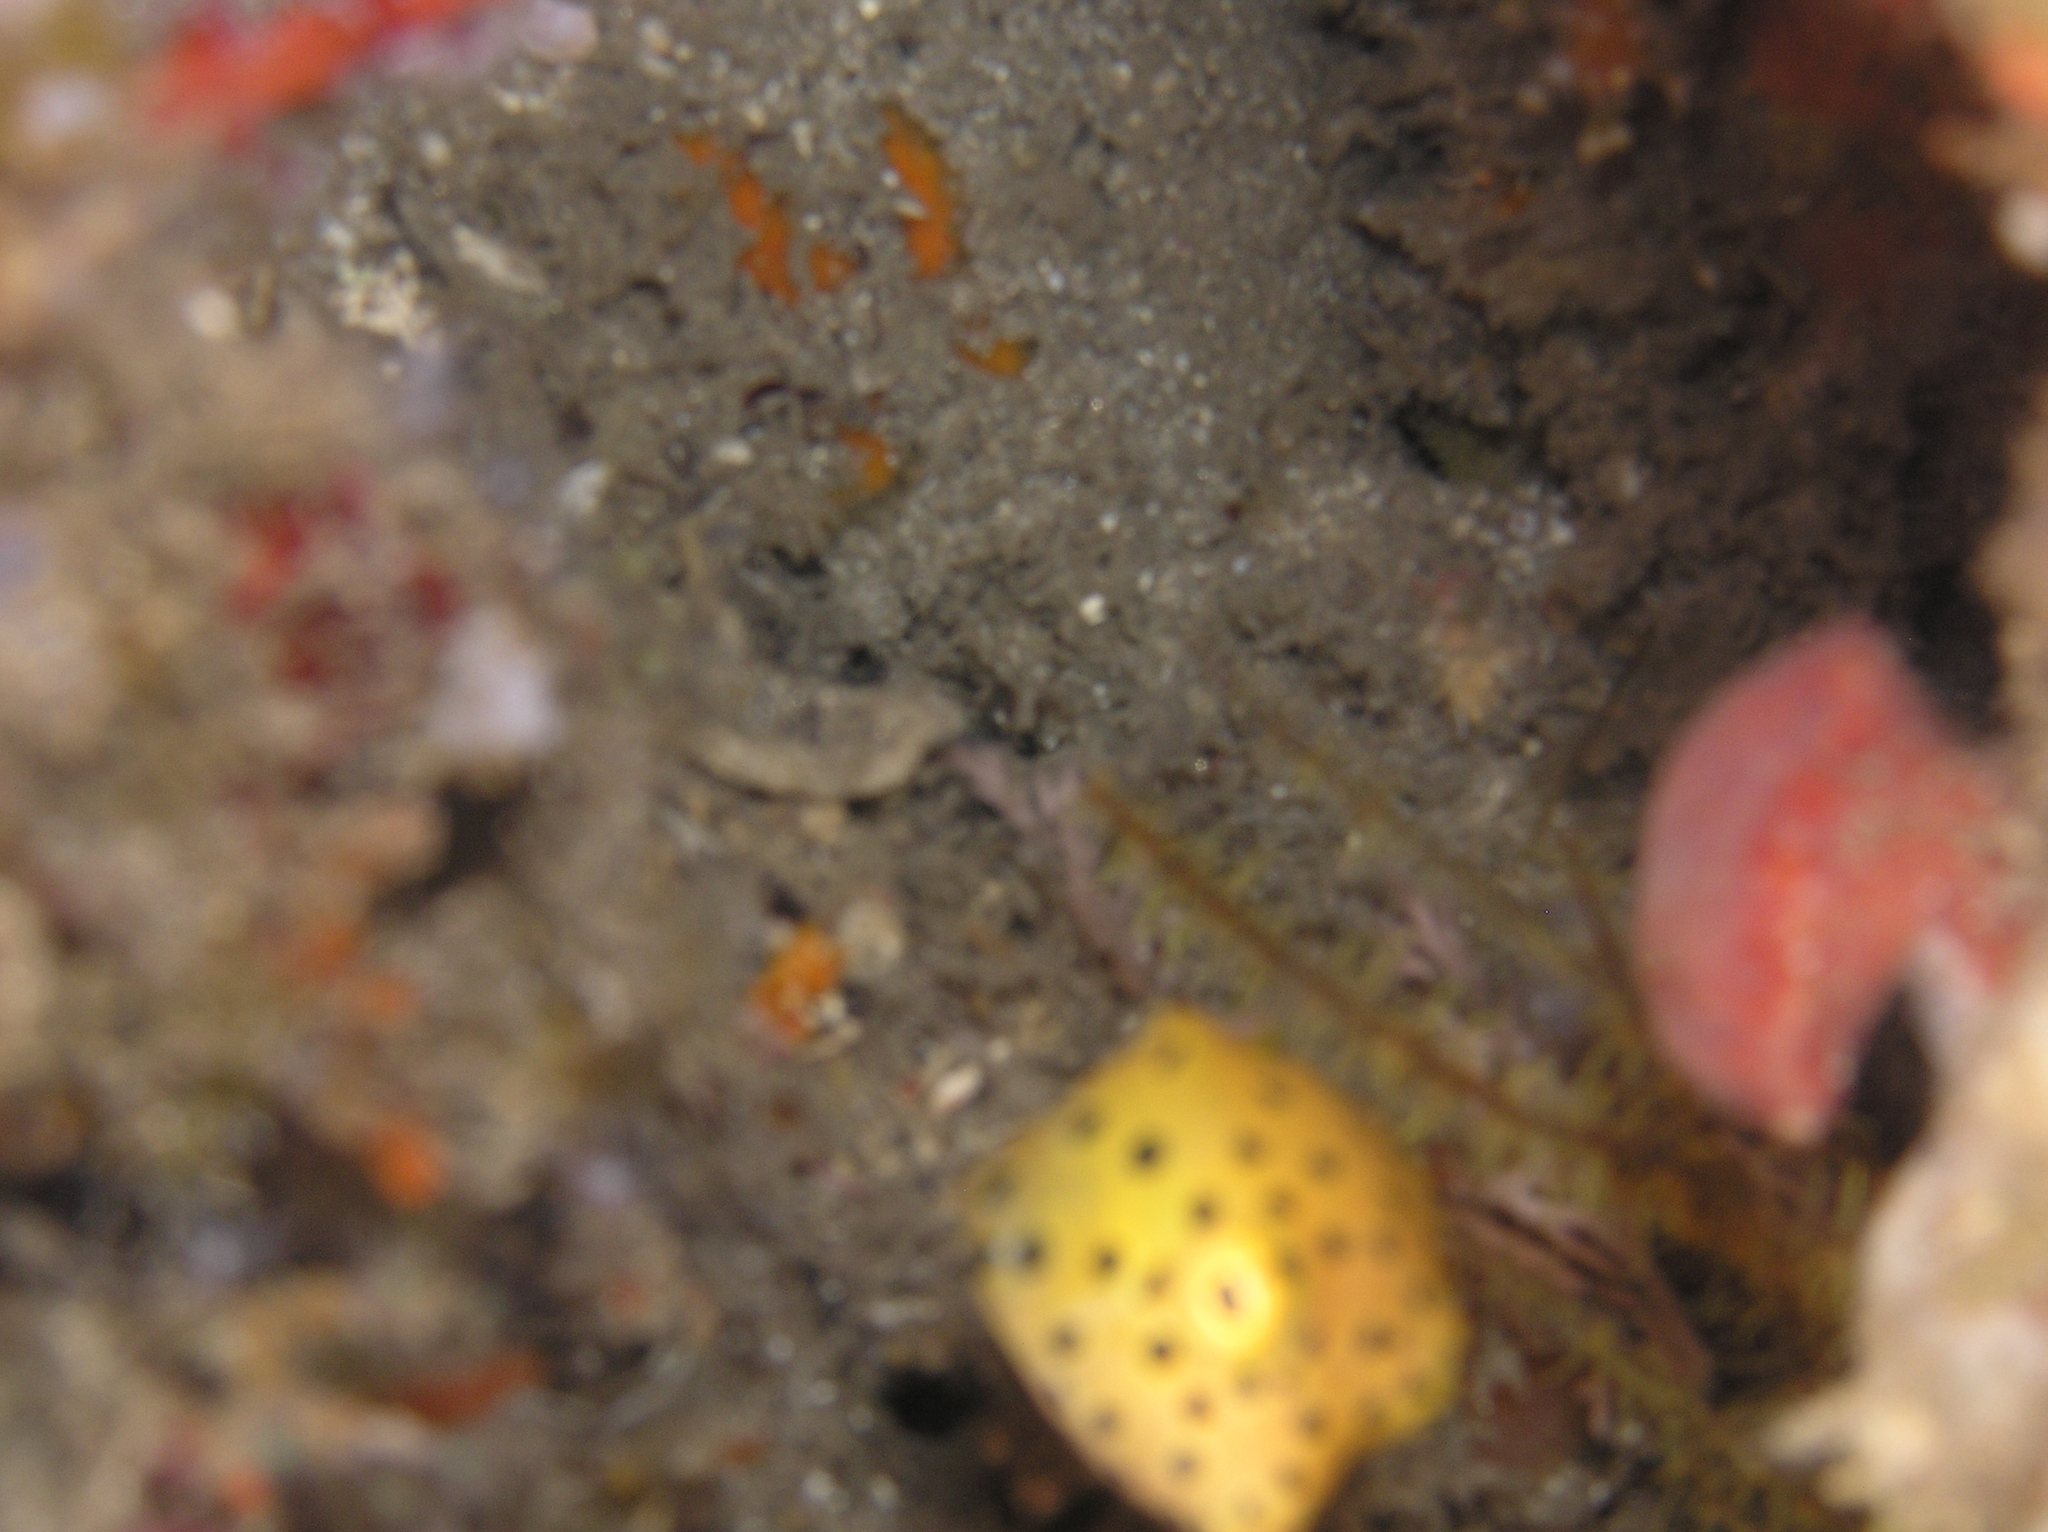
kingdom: Animalia
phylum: Chordata
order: Tetraodontiformes
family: Ostraciidae
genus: Ostracion
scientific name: Ostracion cubicus
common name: Cube trunkfish
